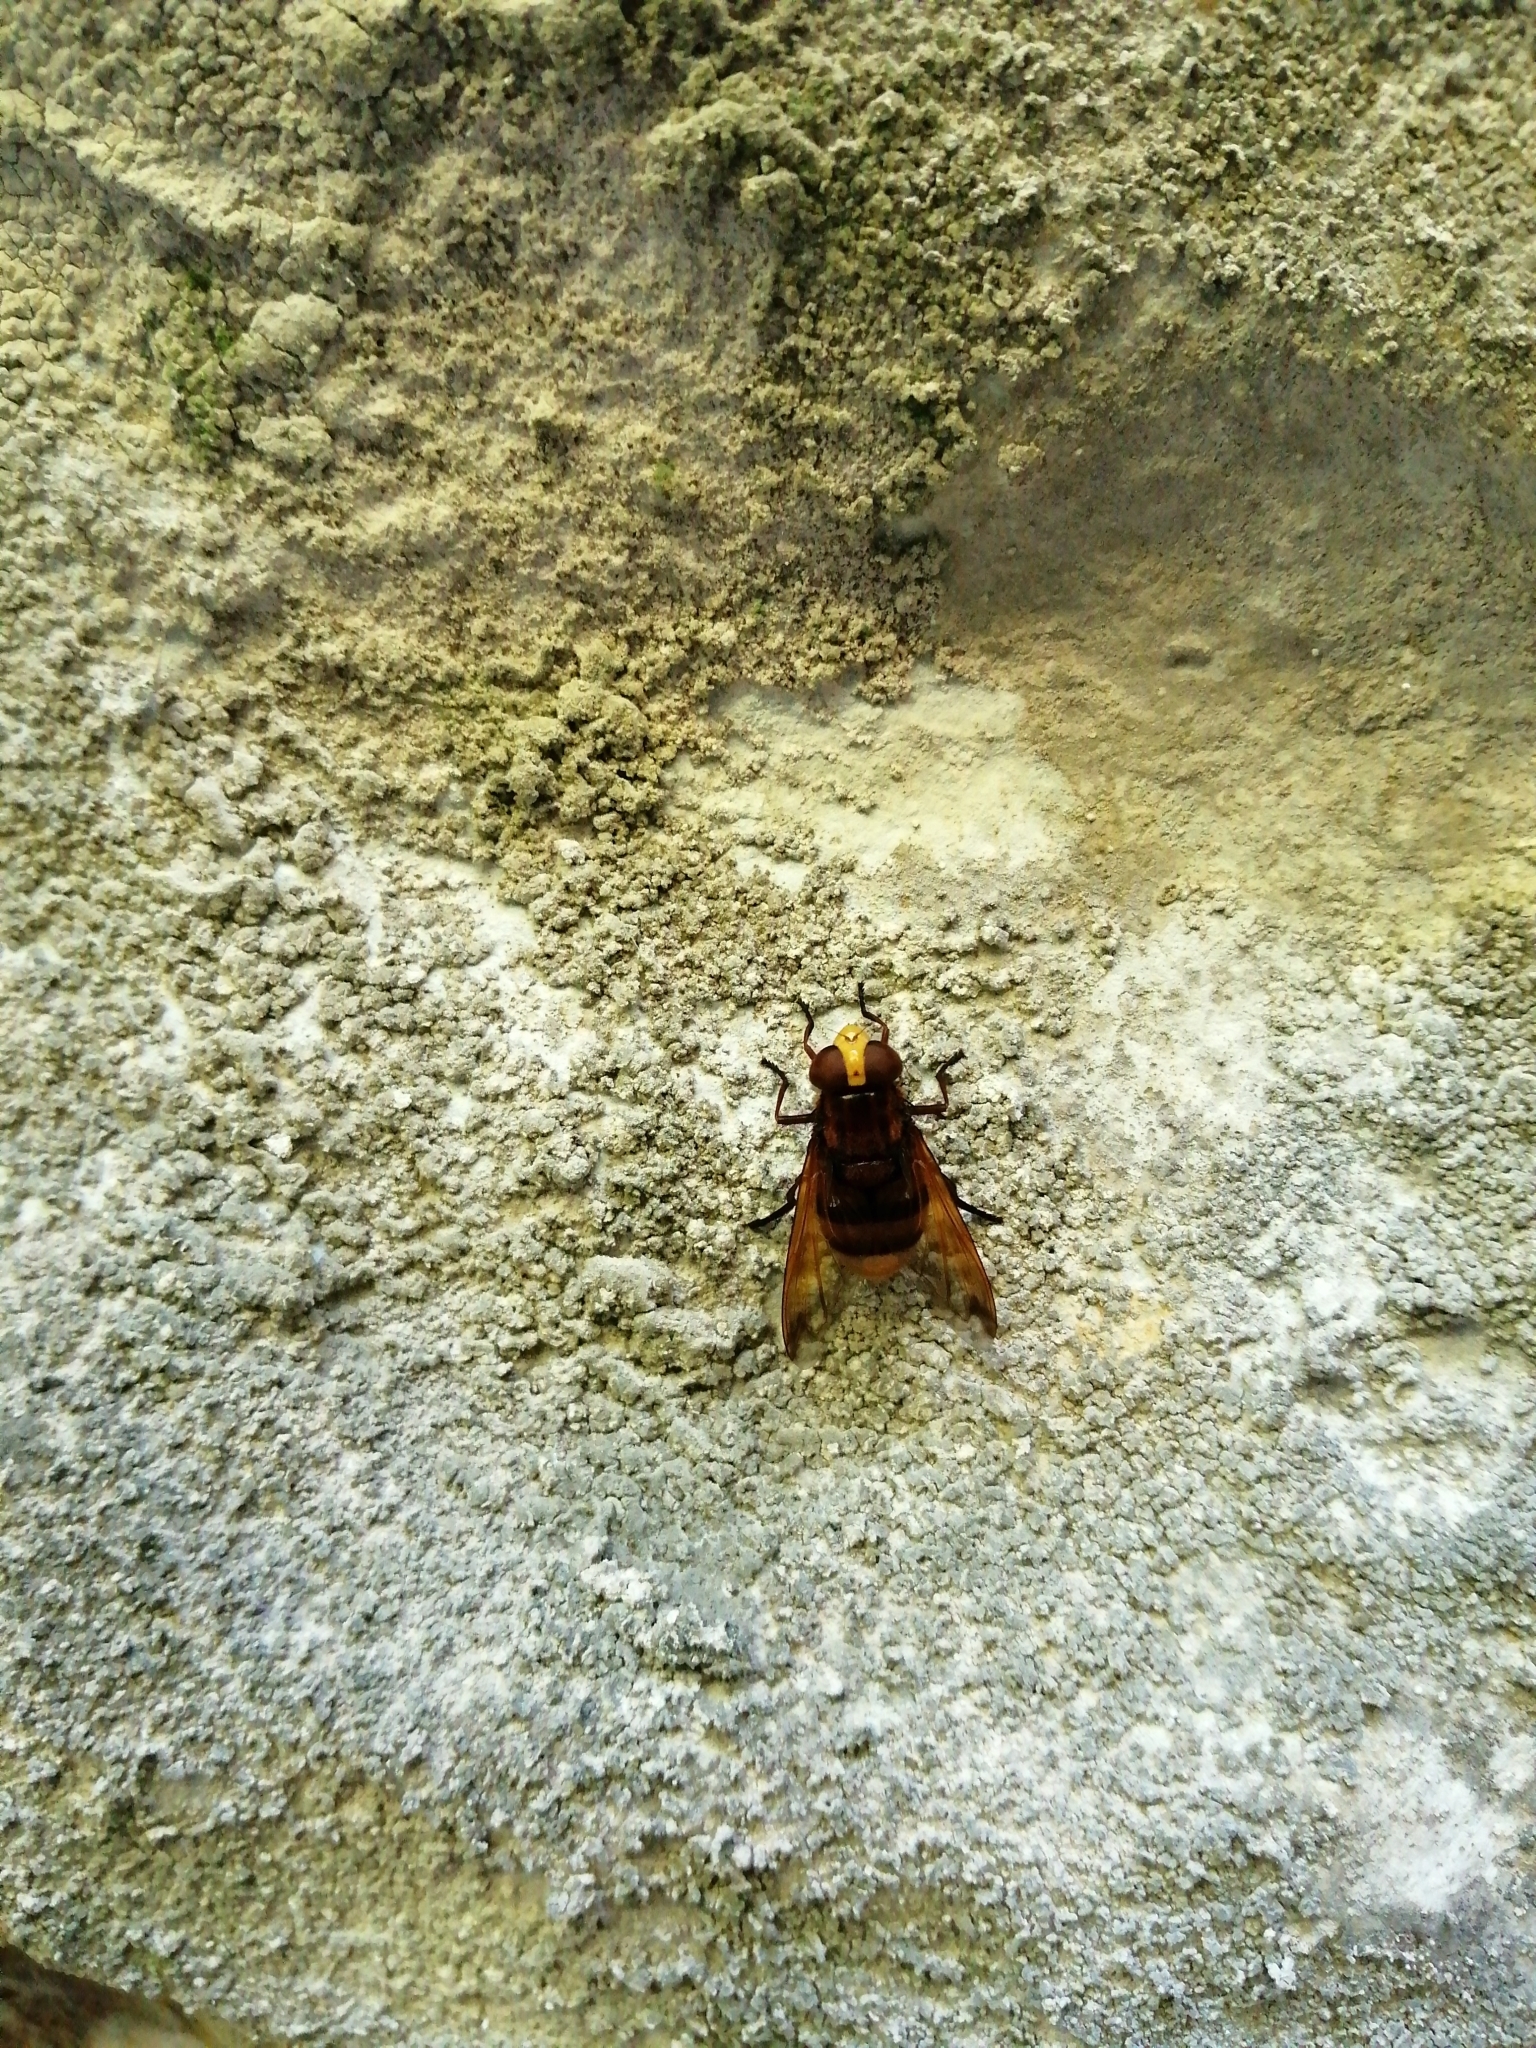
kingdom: Animalia
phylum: Arthropoda
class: Insecta
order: Diptera
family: Syrphidae
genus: Volucella
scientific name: Volucella zonaria
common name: Hornet hoverfly
